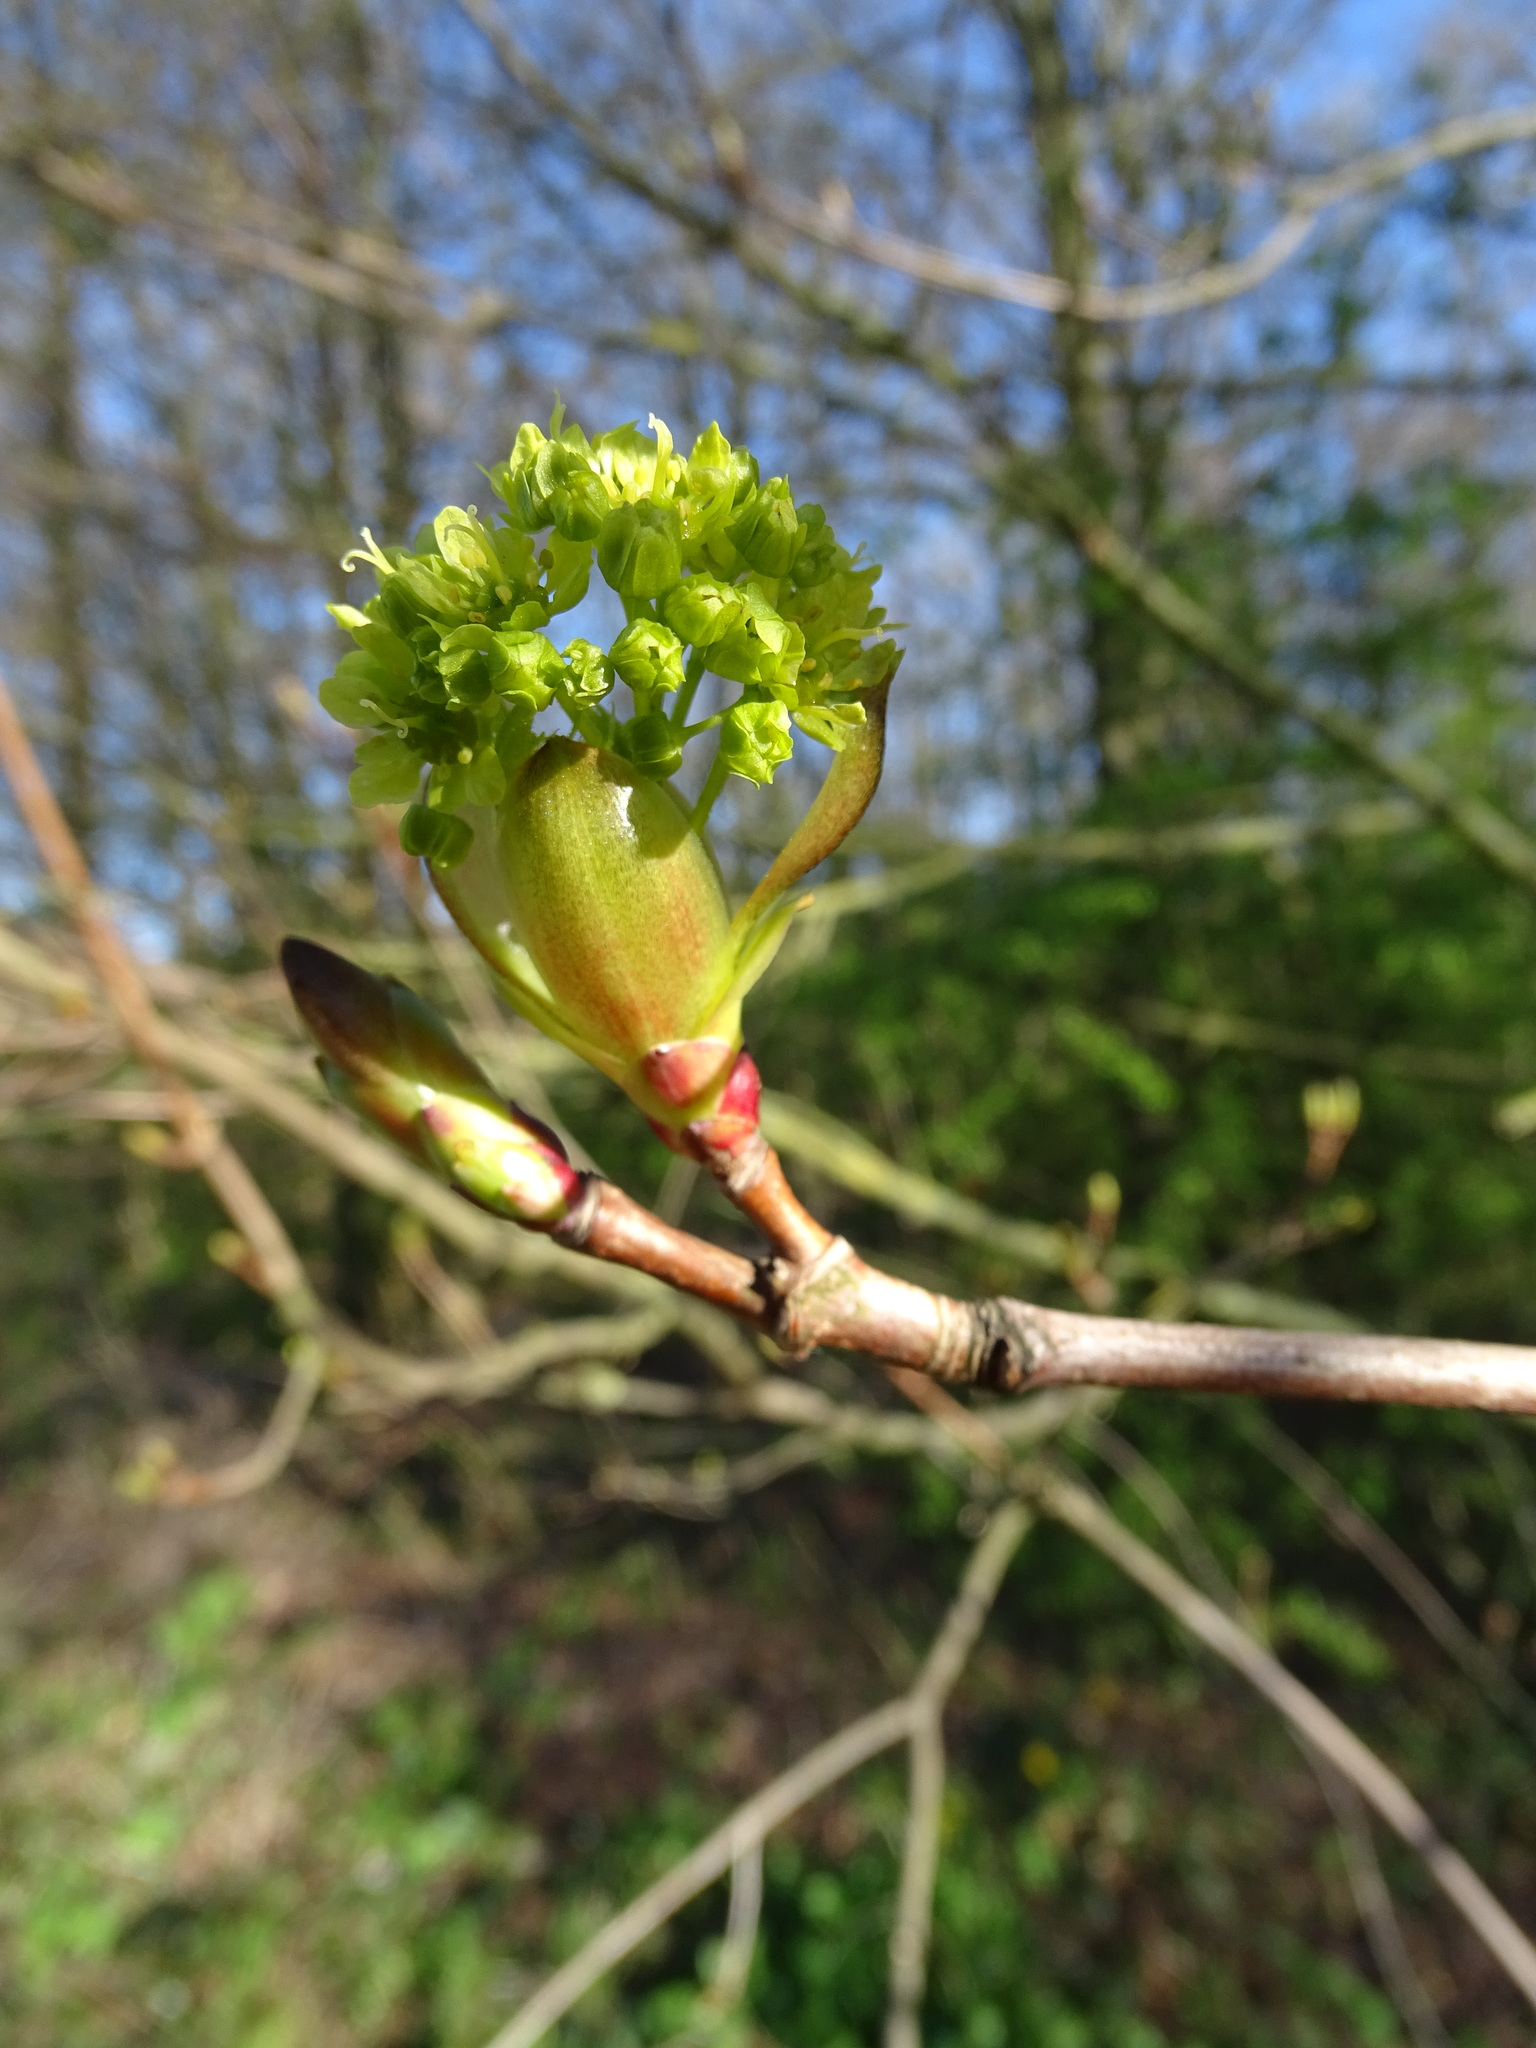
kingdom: Plantae
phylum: Tracheophyta
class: Magnoliopsida
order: Sapindales
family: Sapindaceae
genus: Acer
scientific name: Acer platanoides
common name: Norway maple
